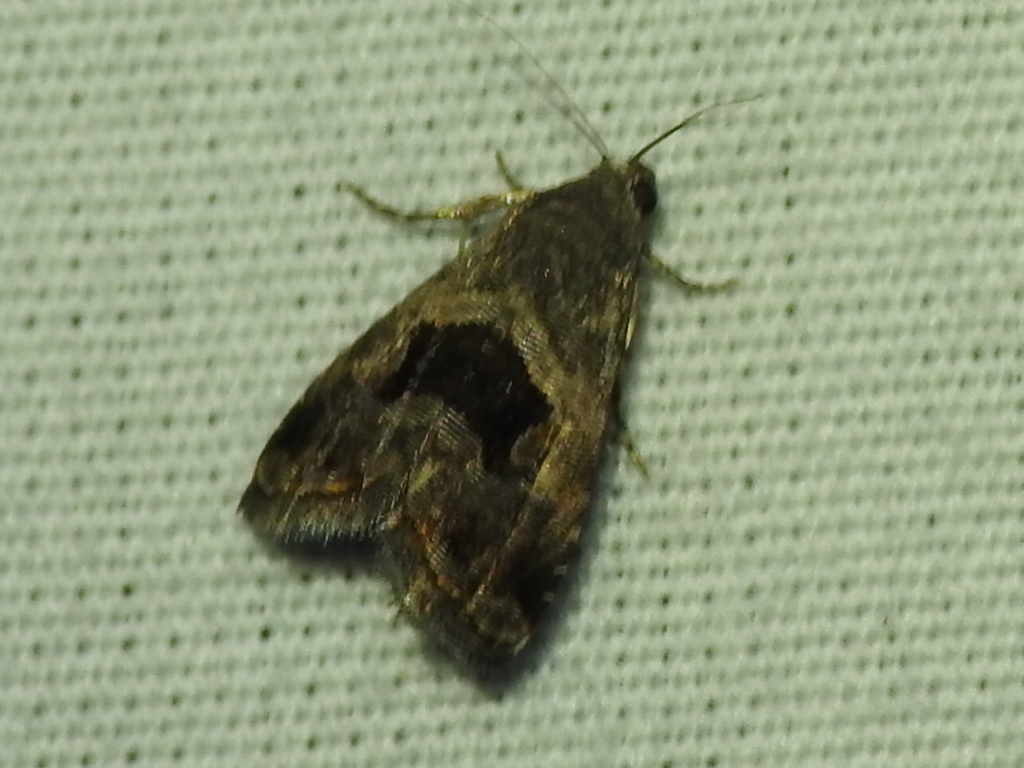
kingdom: Animalia
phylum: Arthropoda
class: Insecta
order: Lepidoptera
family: Noctuidae
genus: Tripudia
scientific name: Tripudia quadrifera
